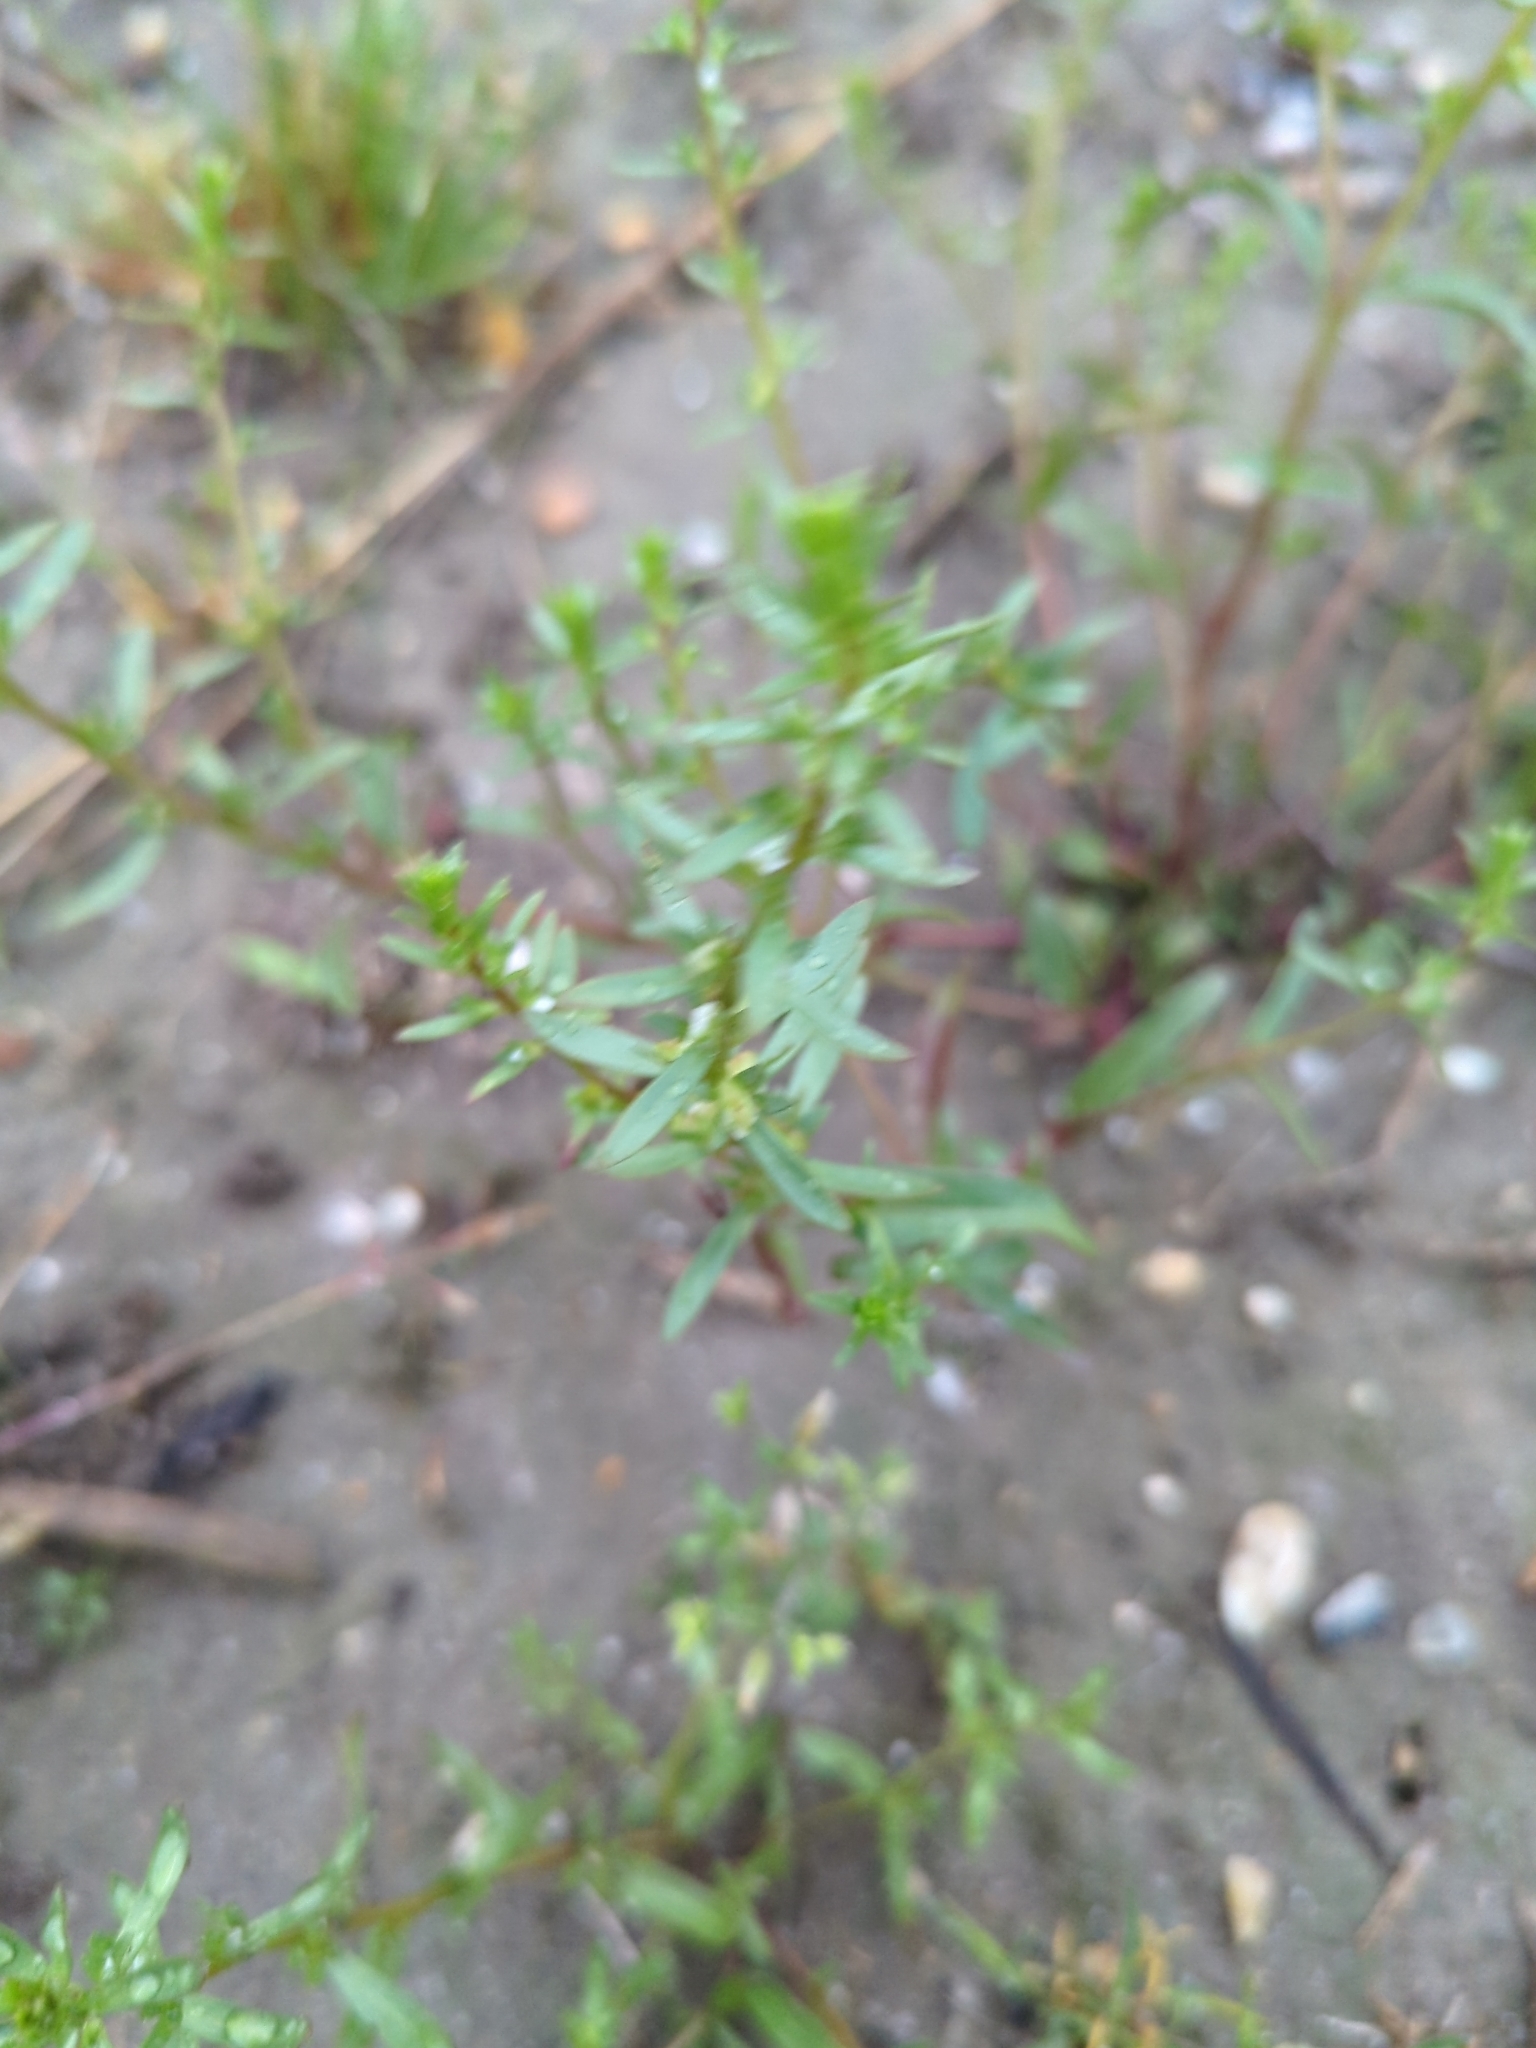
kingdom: Plantae
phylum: Tracheophyta
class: Magnoliopsida
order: Lamiales
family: Plantaginaceae
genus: Veronica
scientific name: Veronica peregrina
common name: Neckweed
